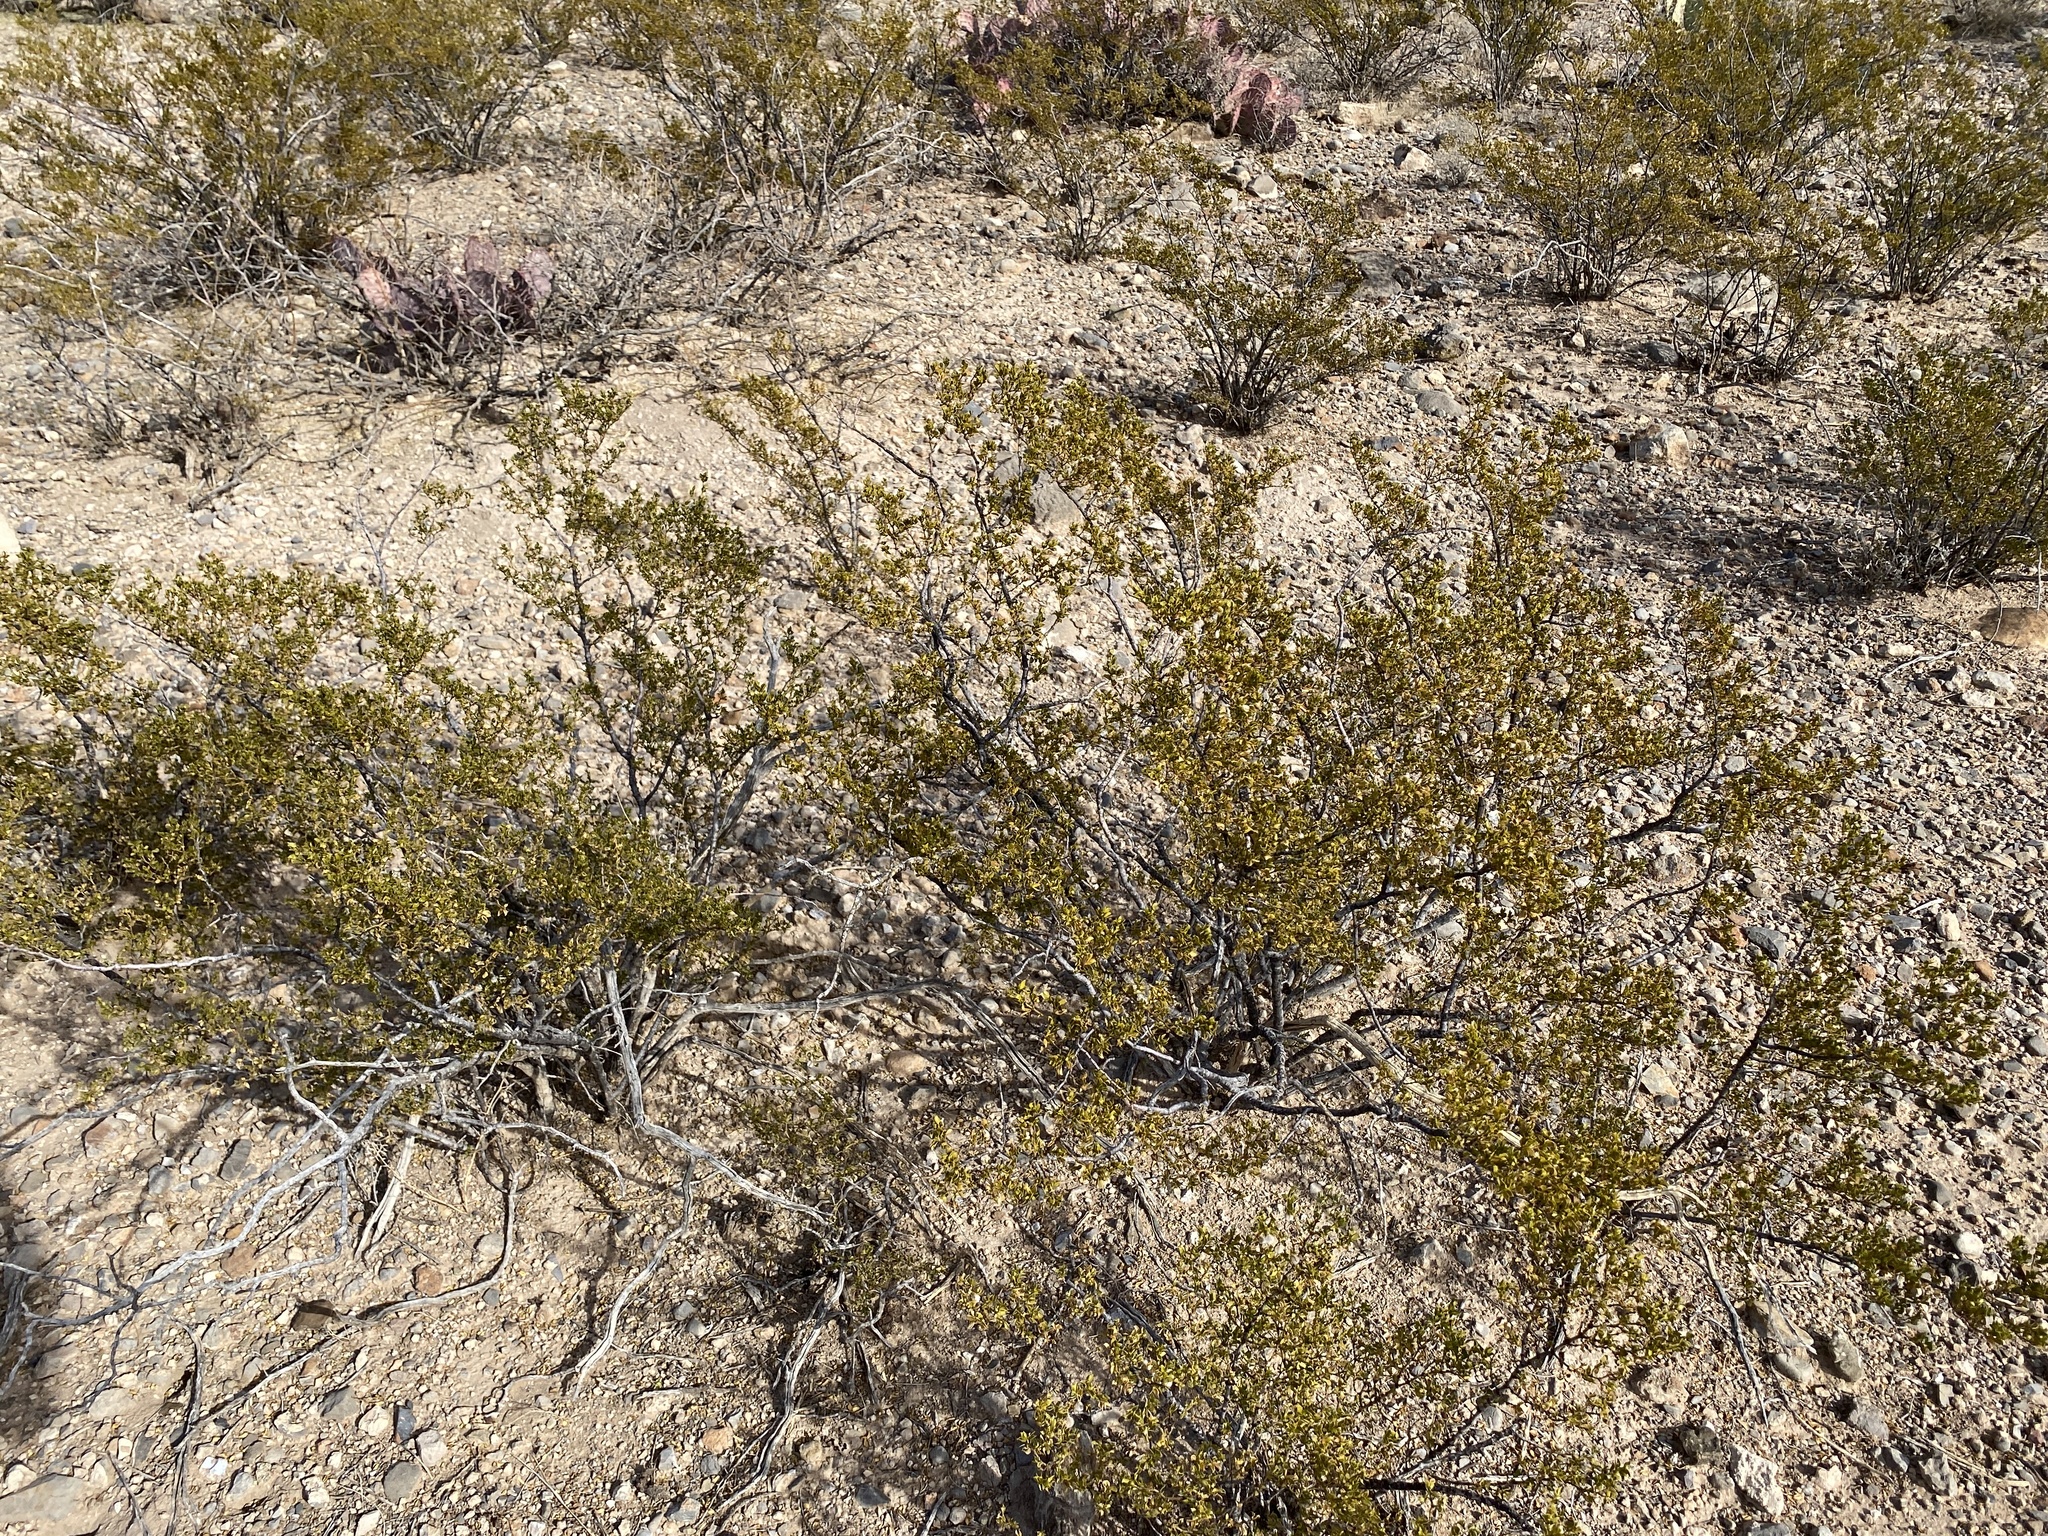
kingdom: Plantae
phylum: Tracheophyta
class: Magnoliopsida
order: Zygophyllales
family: Zygophyllaceae
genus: Larrea
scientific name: Larrea tridentata
